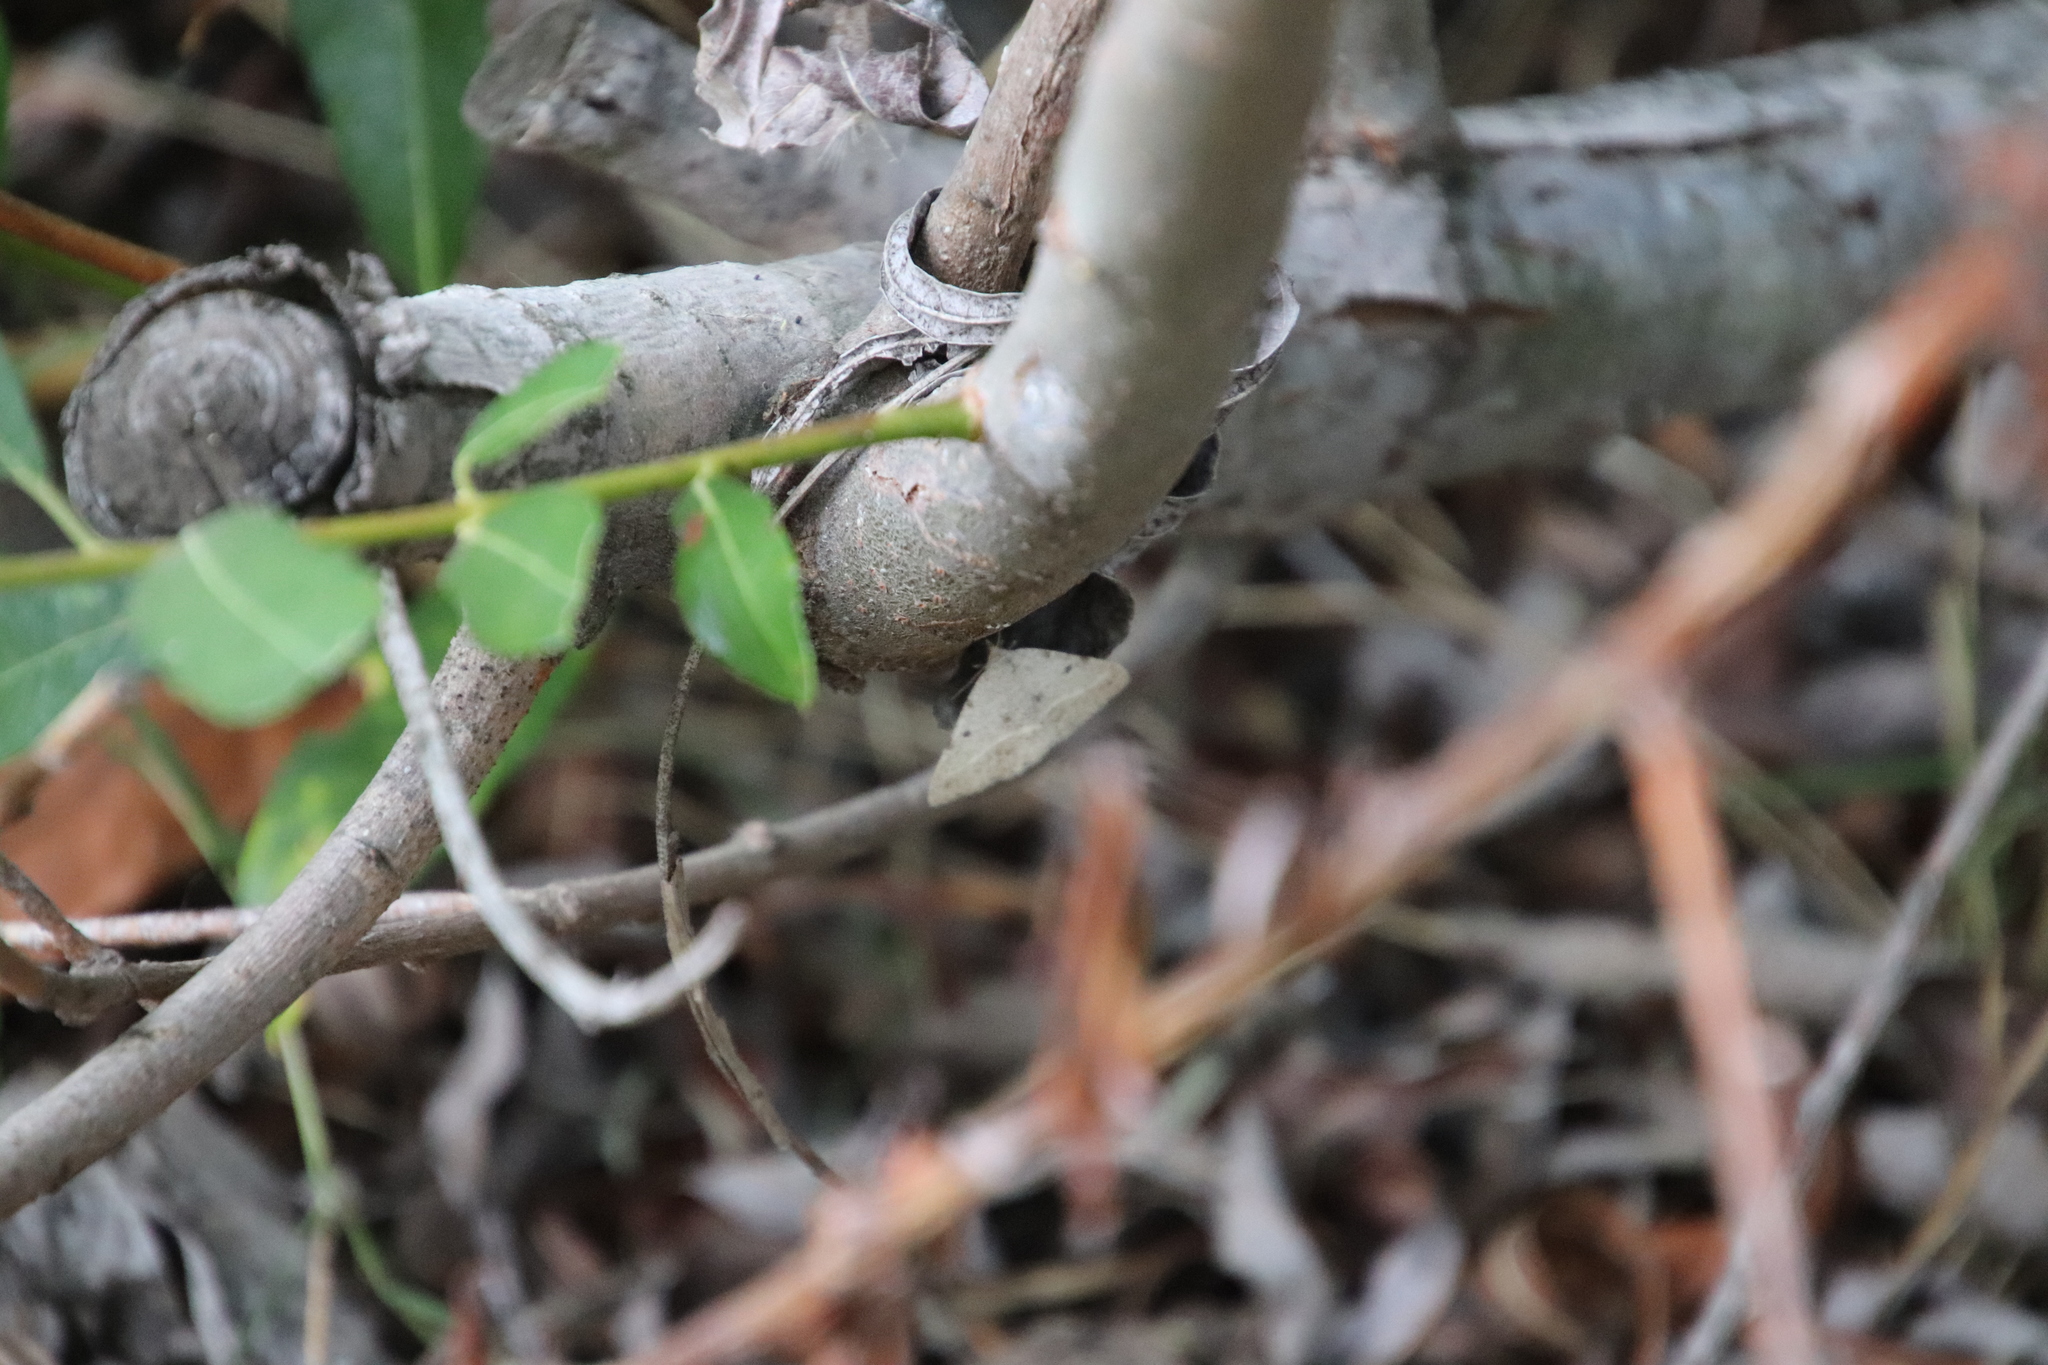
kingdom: Animalia
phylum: Arthropoda
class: Insecta
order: Lepidoptera
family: Geometridae
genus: Digrammia
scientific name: Digrammia irrorata
